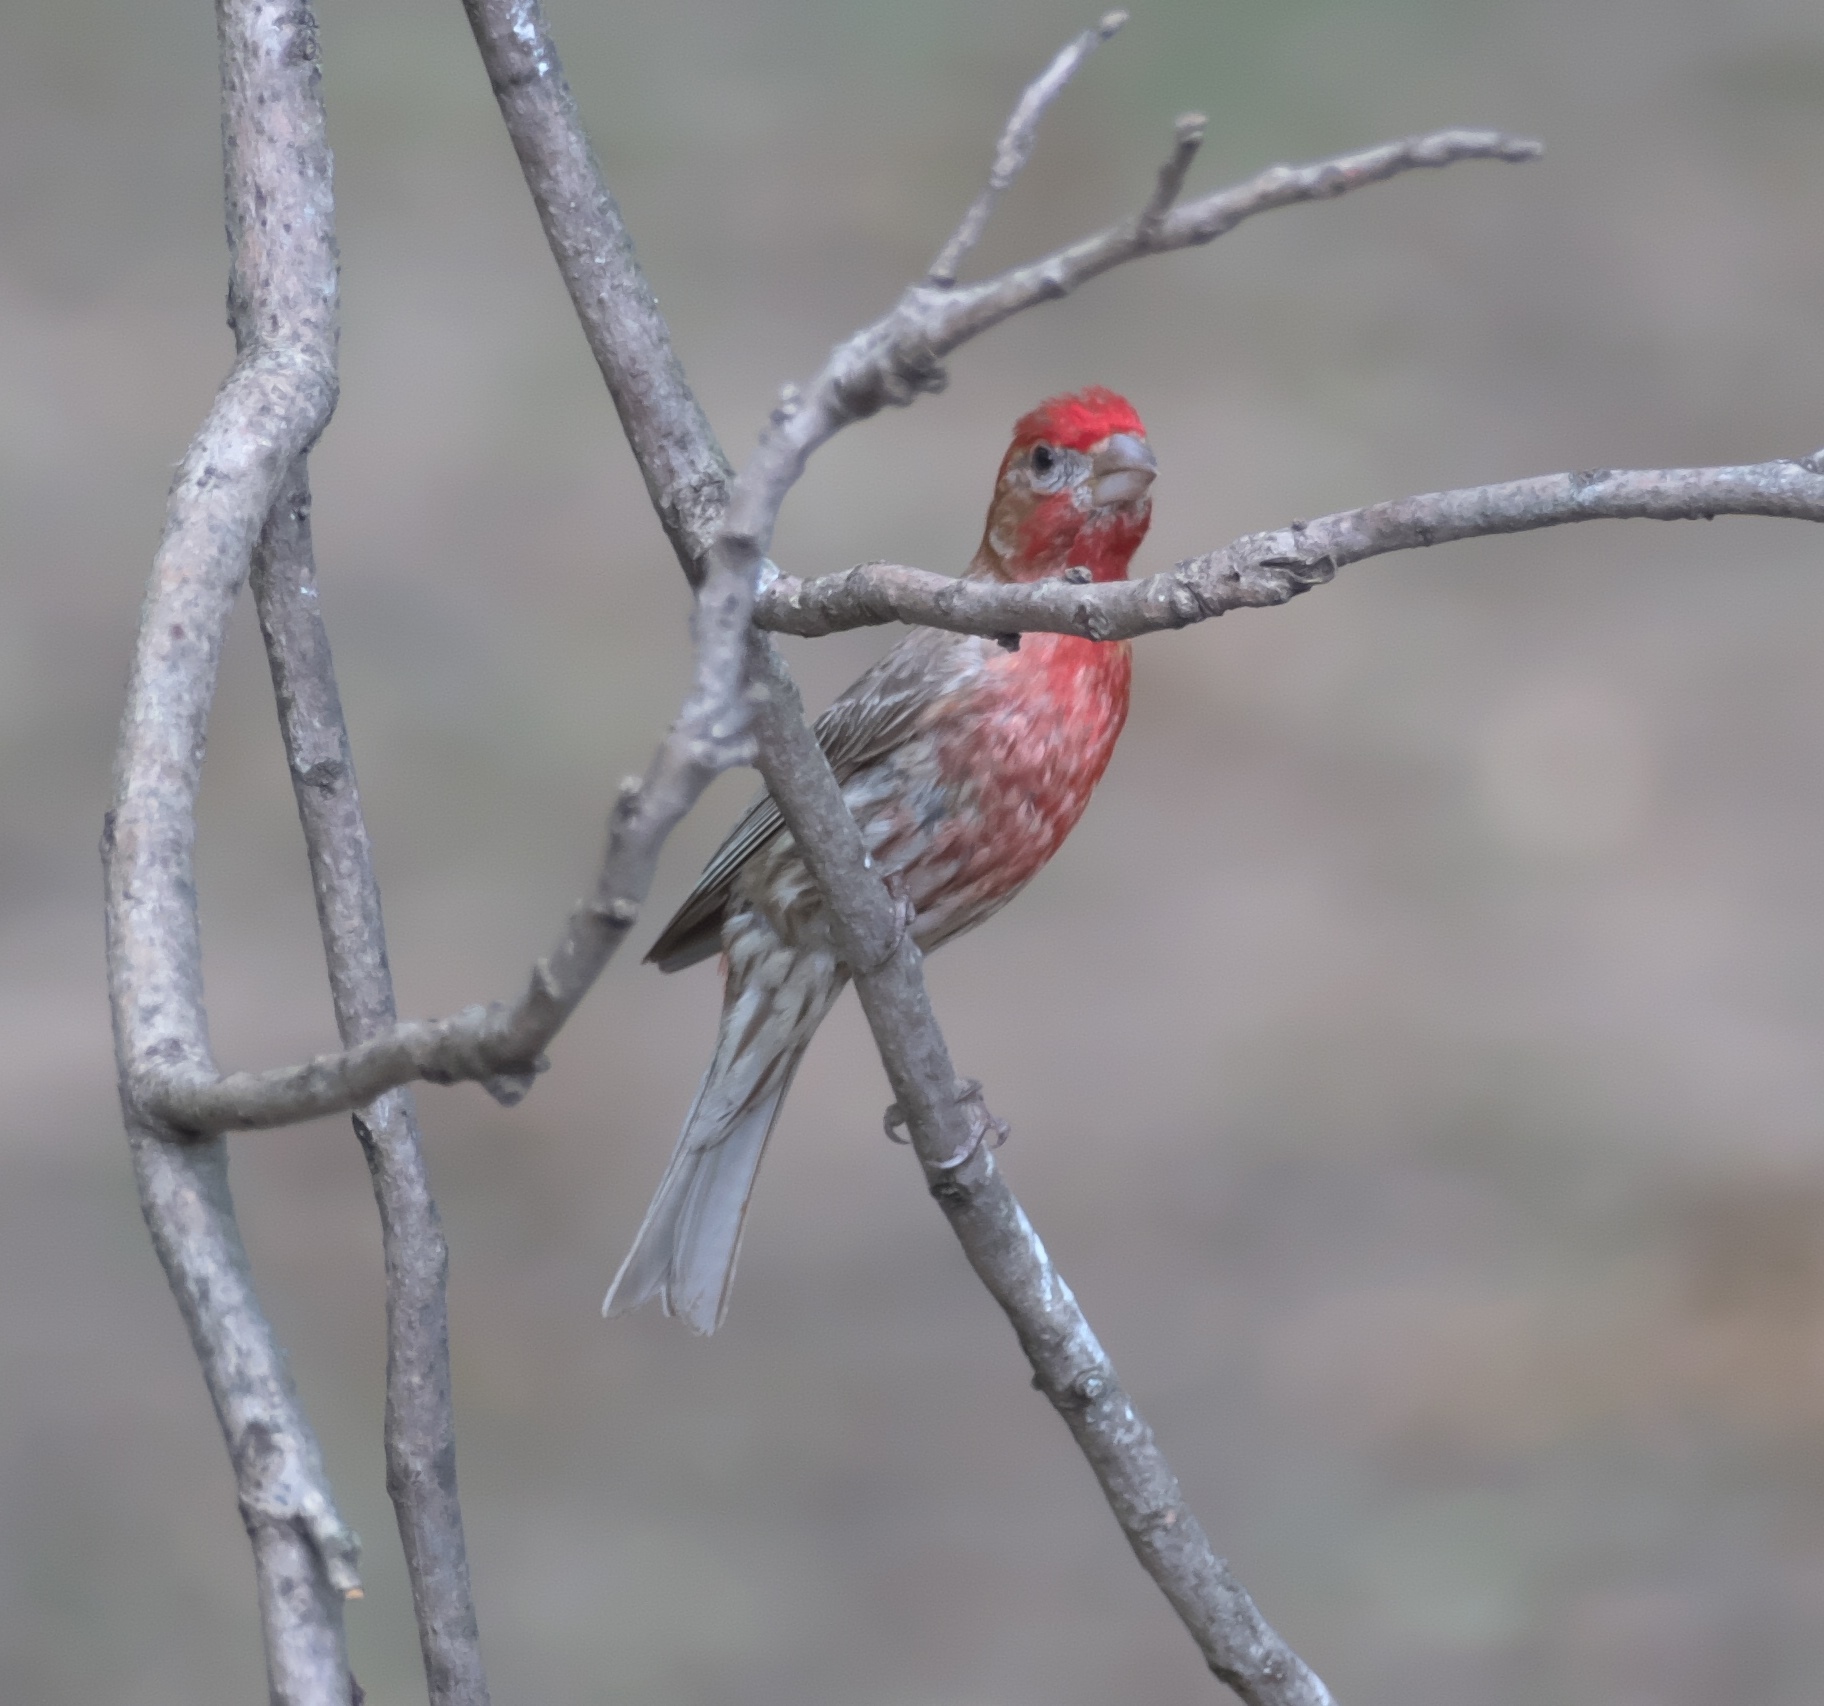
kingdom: Animalia
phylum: Chordata
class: Aves
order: Passeriformes
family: Fringillidae
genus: Haemorhous
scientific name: Haemorhous mexicanus
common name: House finch
